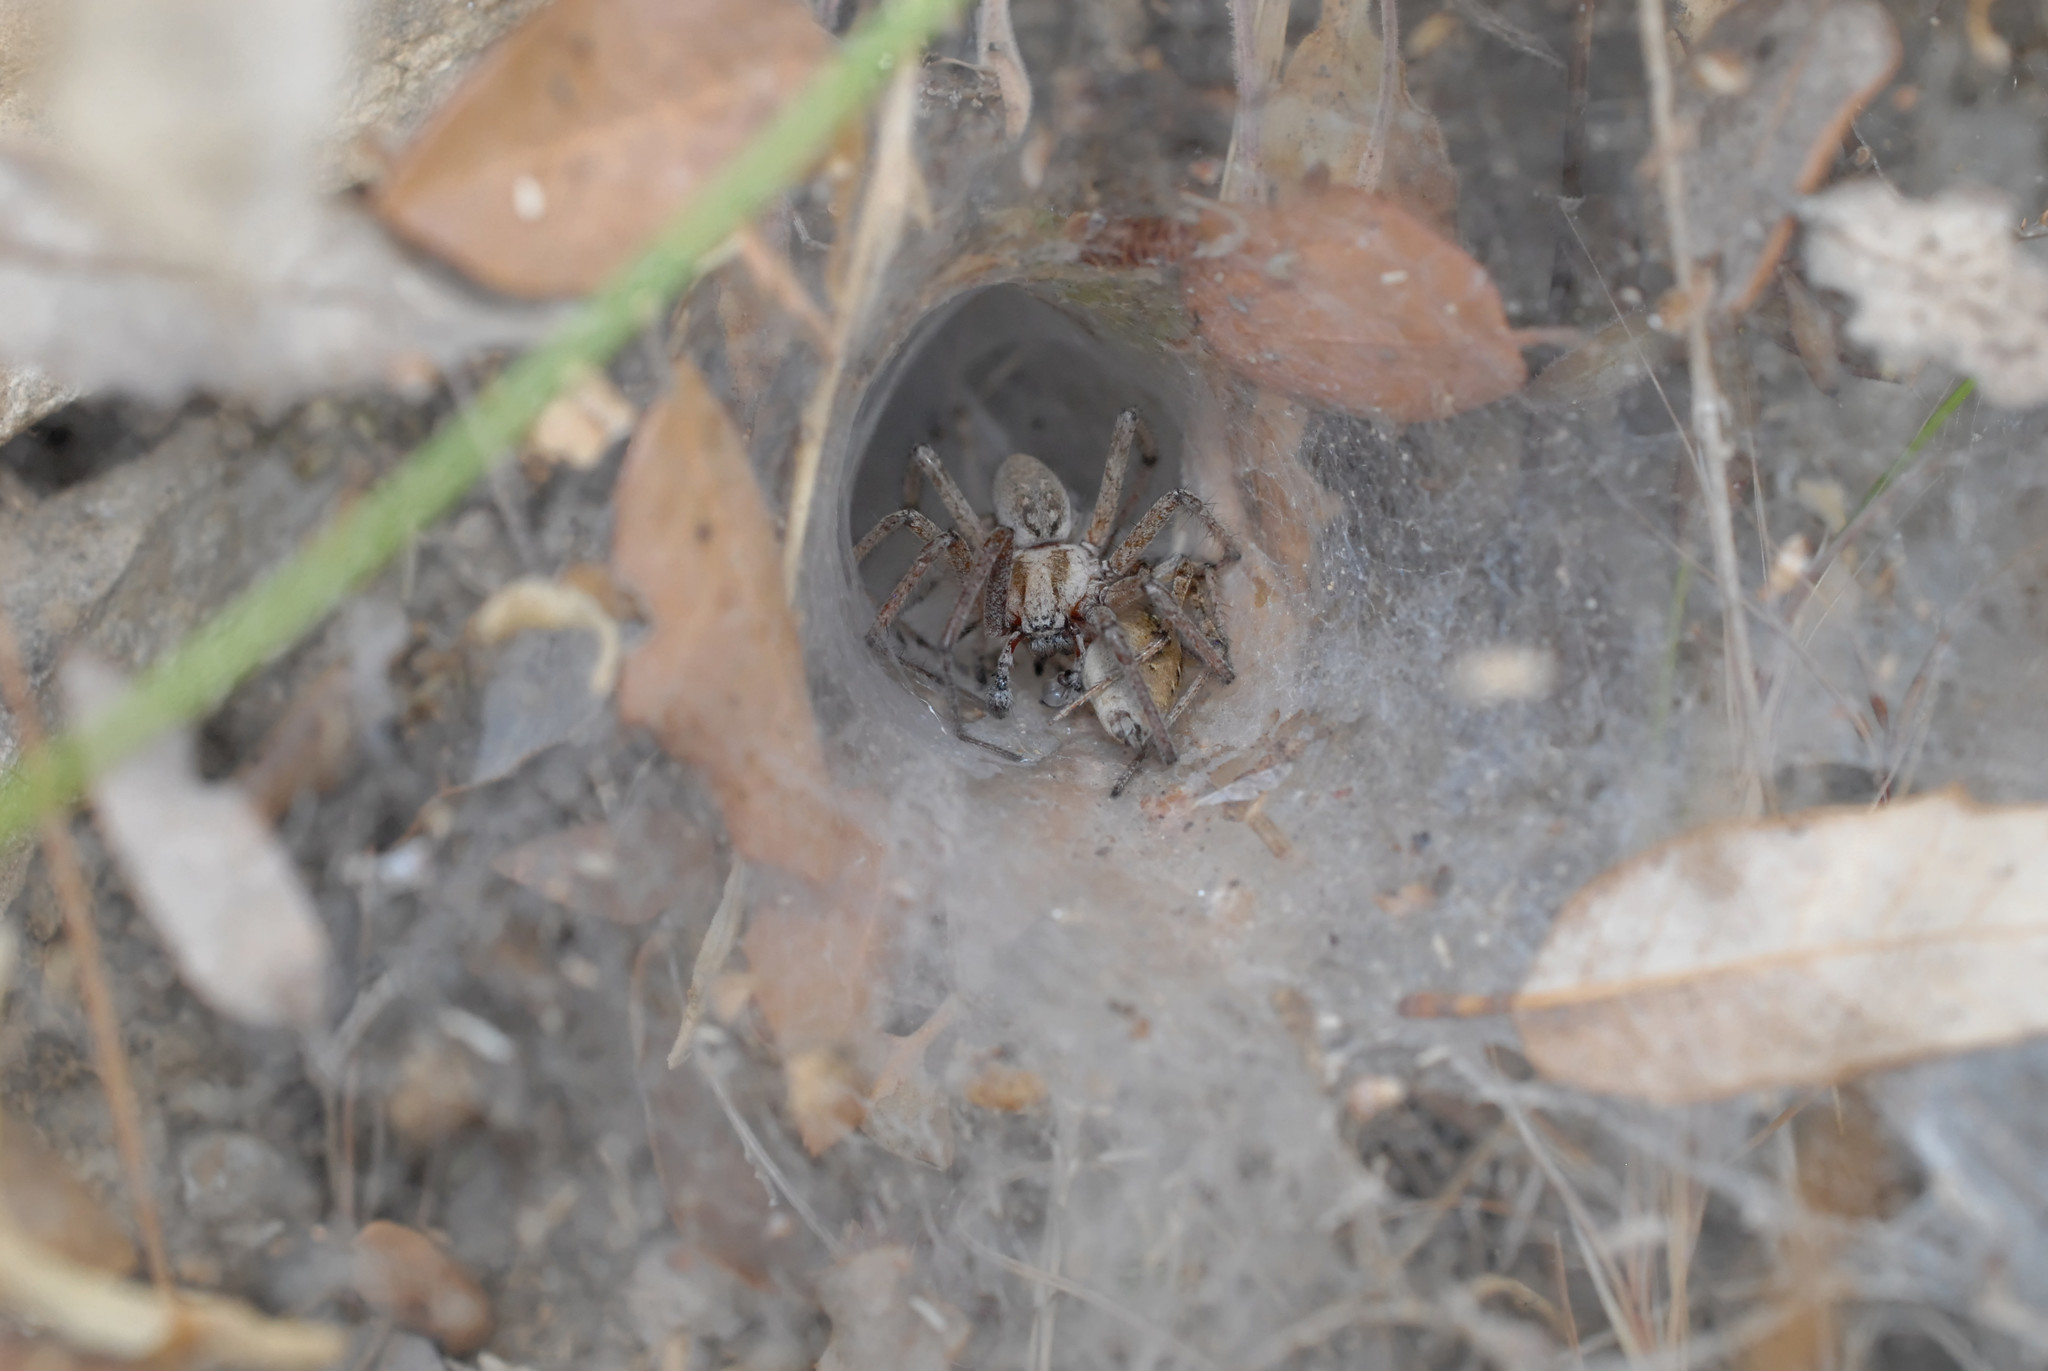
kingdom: Animalia
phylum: Arthropoda
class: Arachnida
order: Araneae
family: Agelenidae
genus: Agelena
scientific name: Agelena labyrinthica
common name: Labyrinth spider
